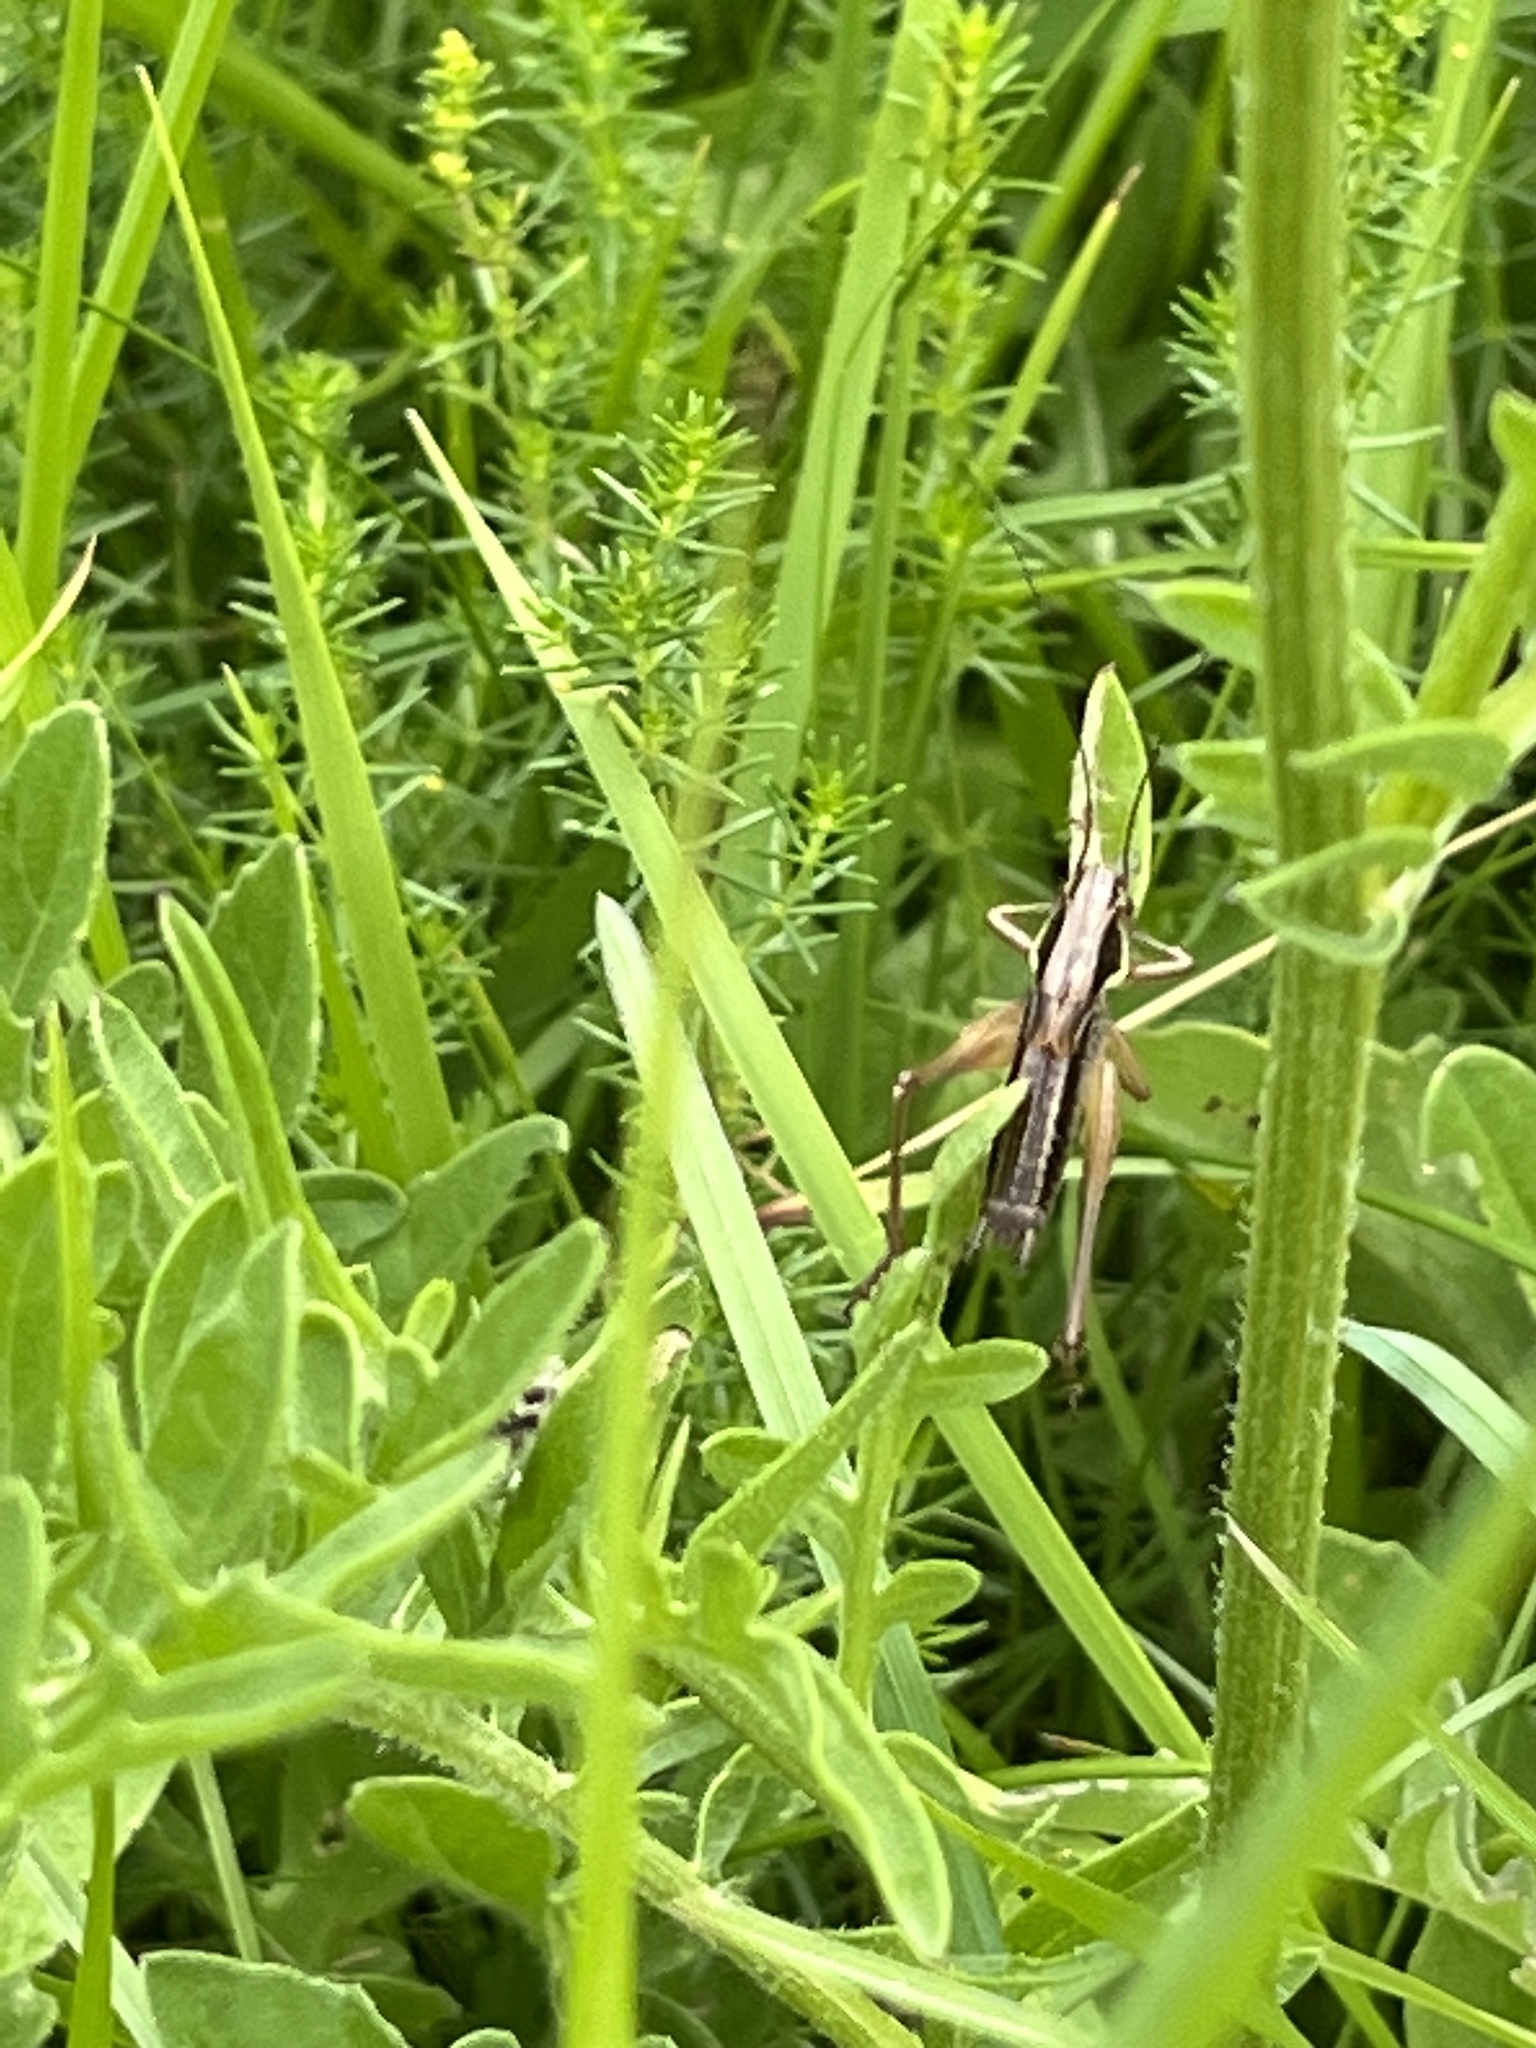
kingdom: Animalia
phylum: Arthropoda
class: Insecta
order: Orthoptera
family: Tettigoniidae
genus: Roeseliana
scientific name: Roeseliana roeselii
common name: Roesel's bush cricket
